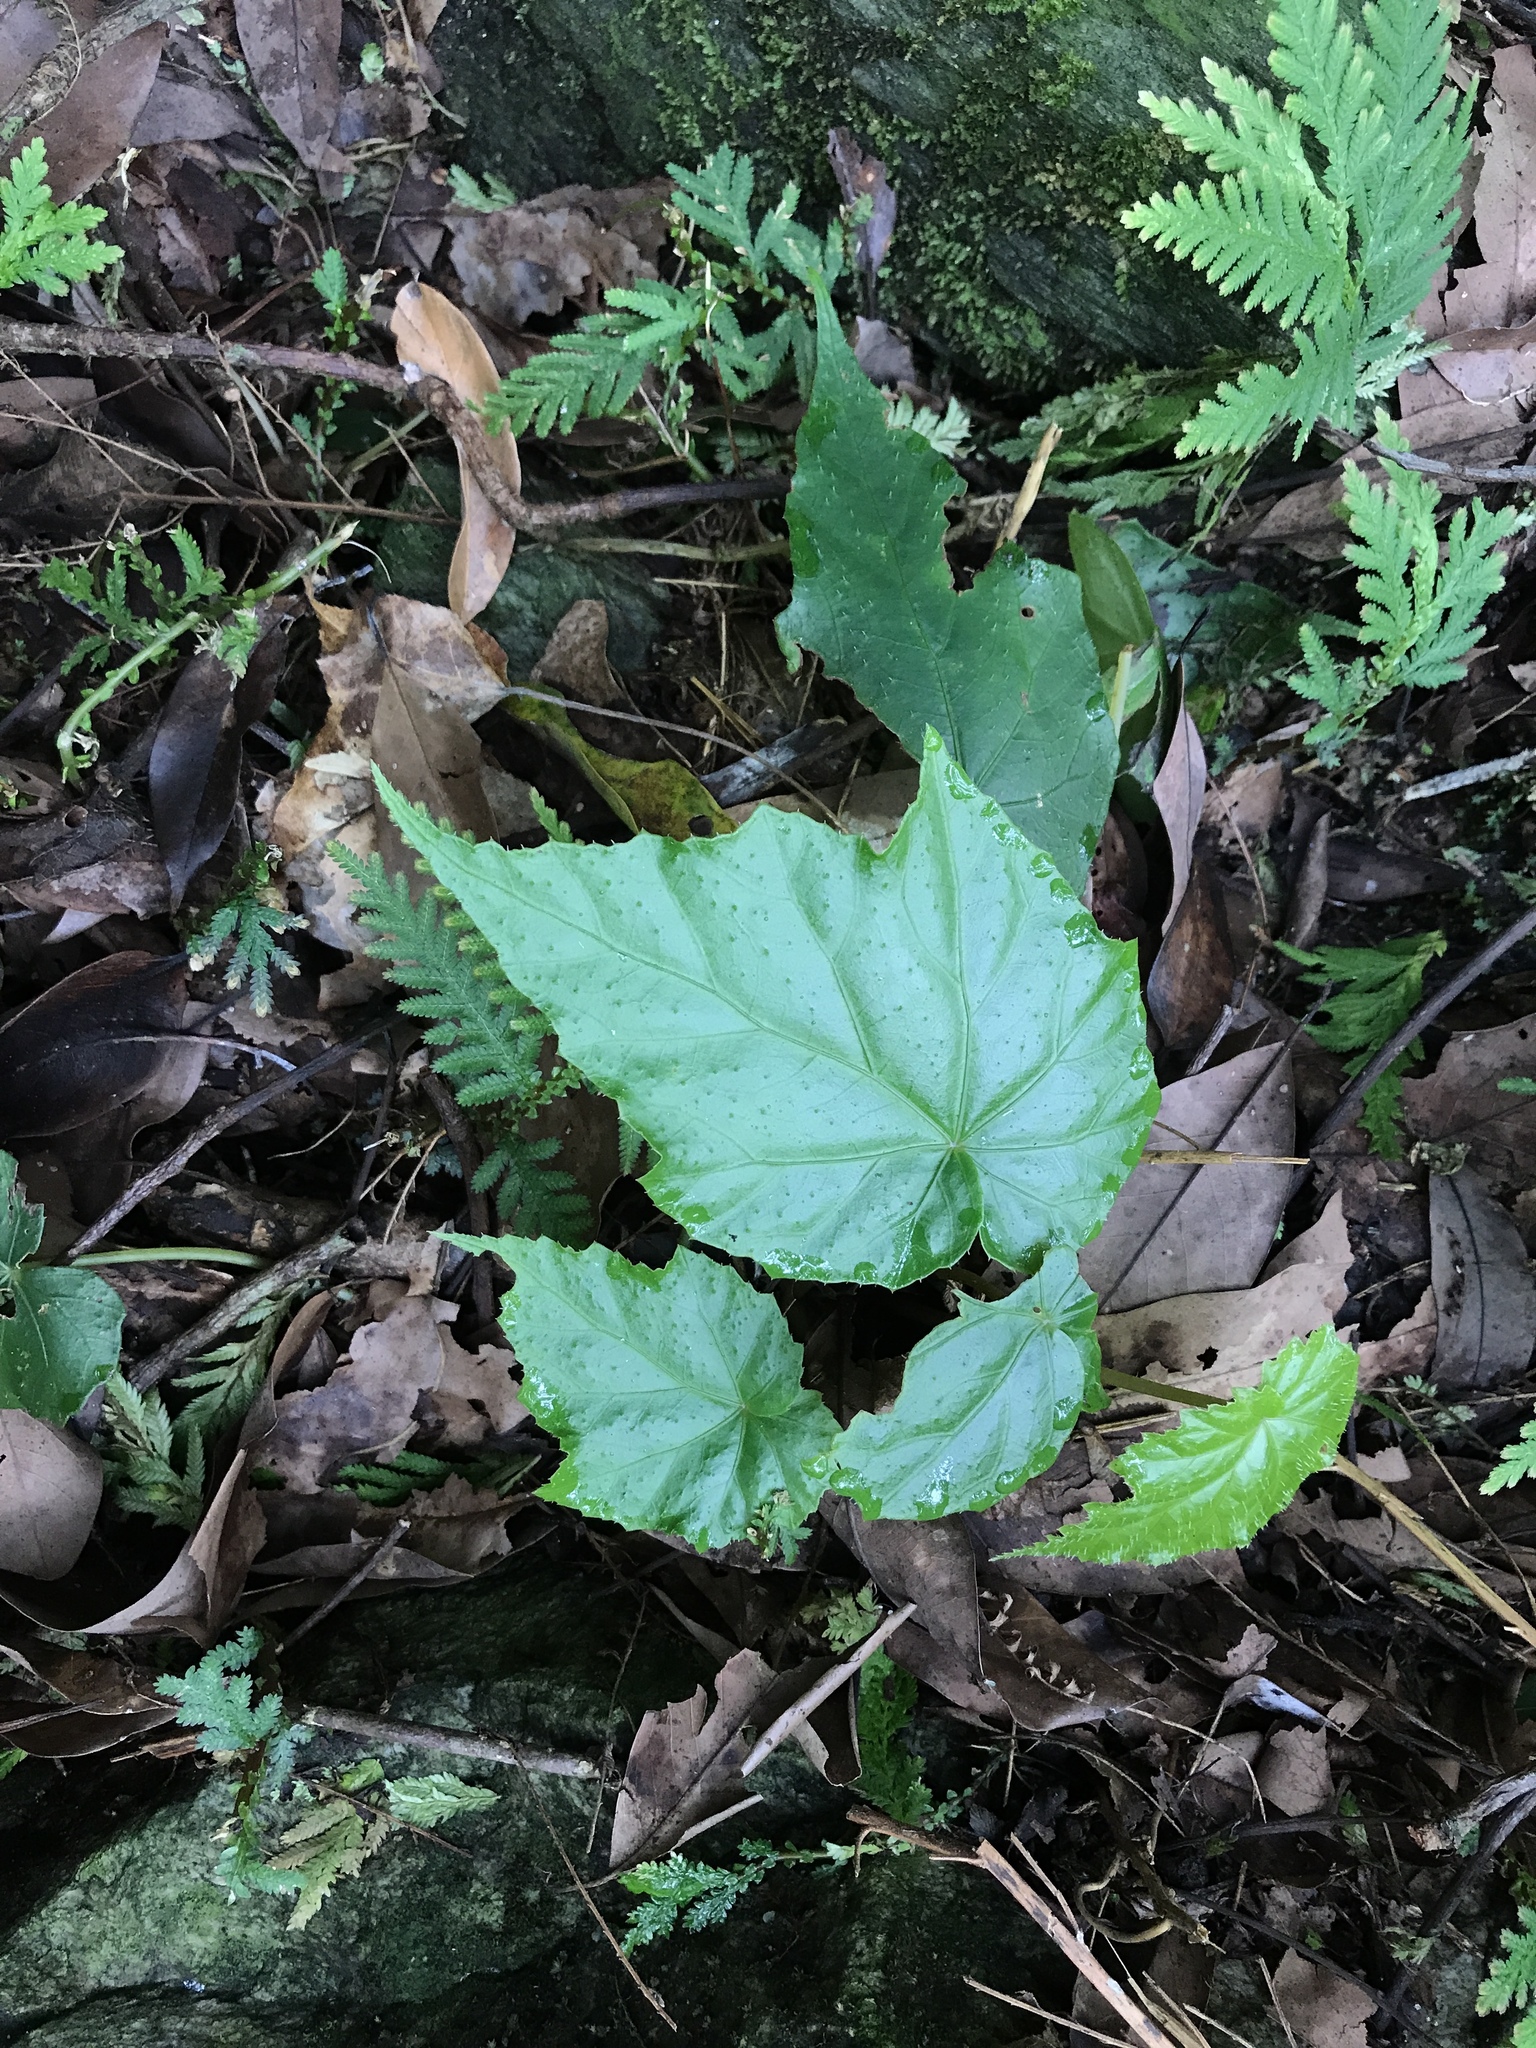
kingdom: Plantae
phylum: Tracheophyta
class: Magnoliopsida
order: Cucurbitales
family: Begoniaceae
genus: Begonia
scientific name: Begonia formosana
